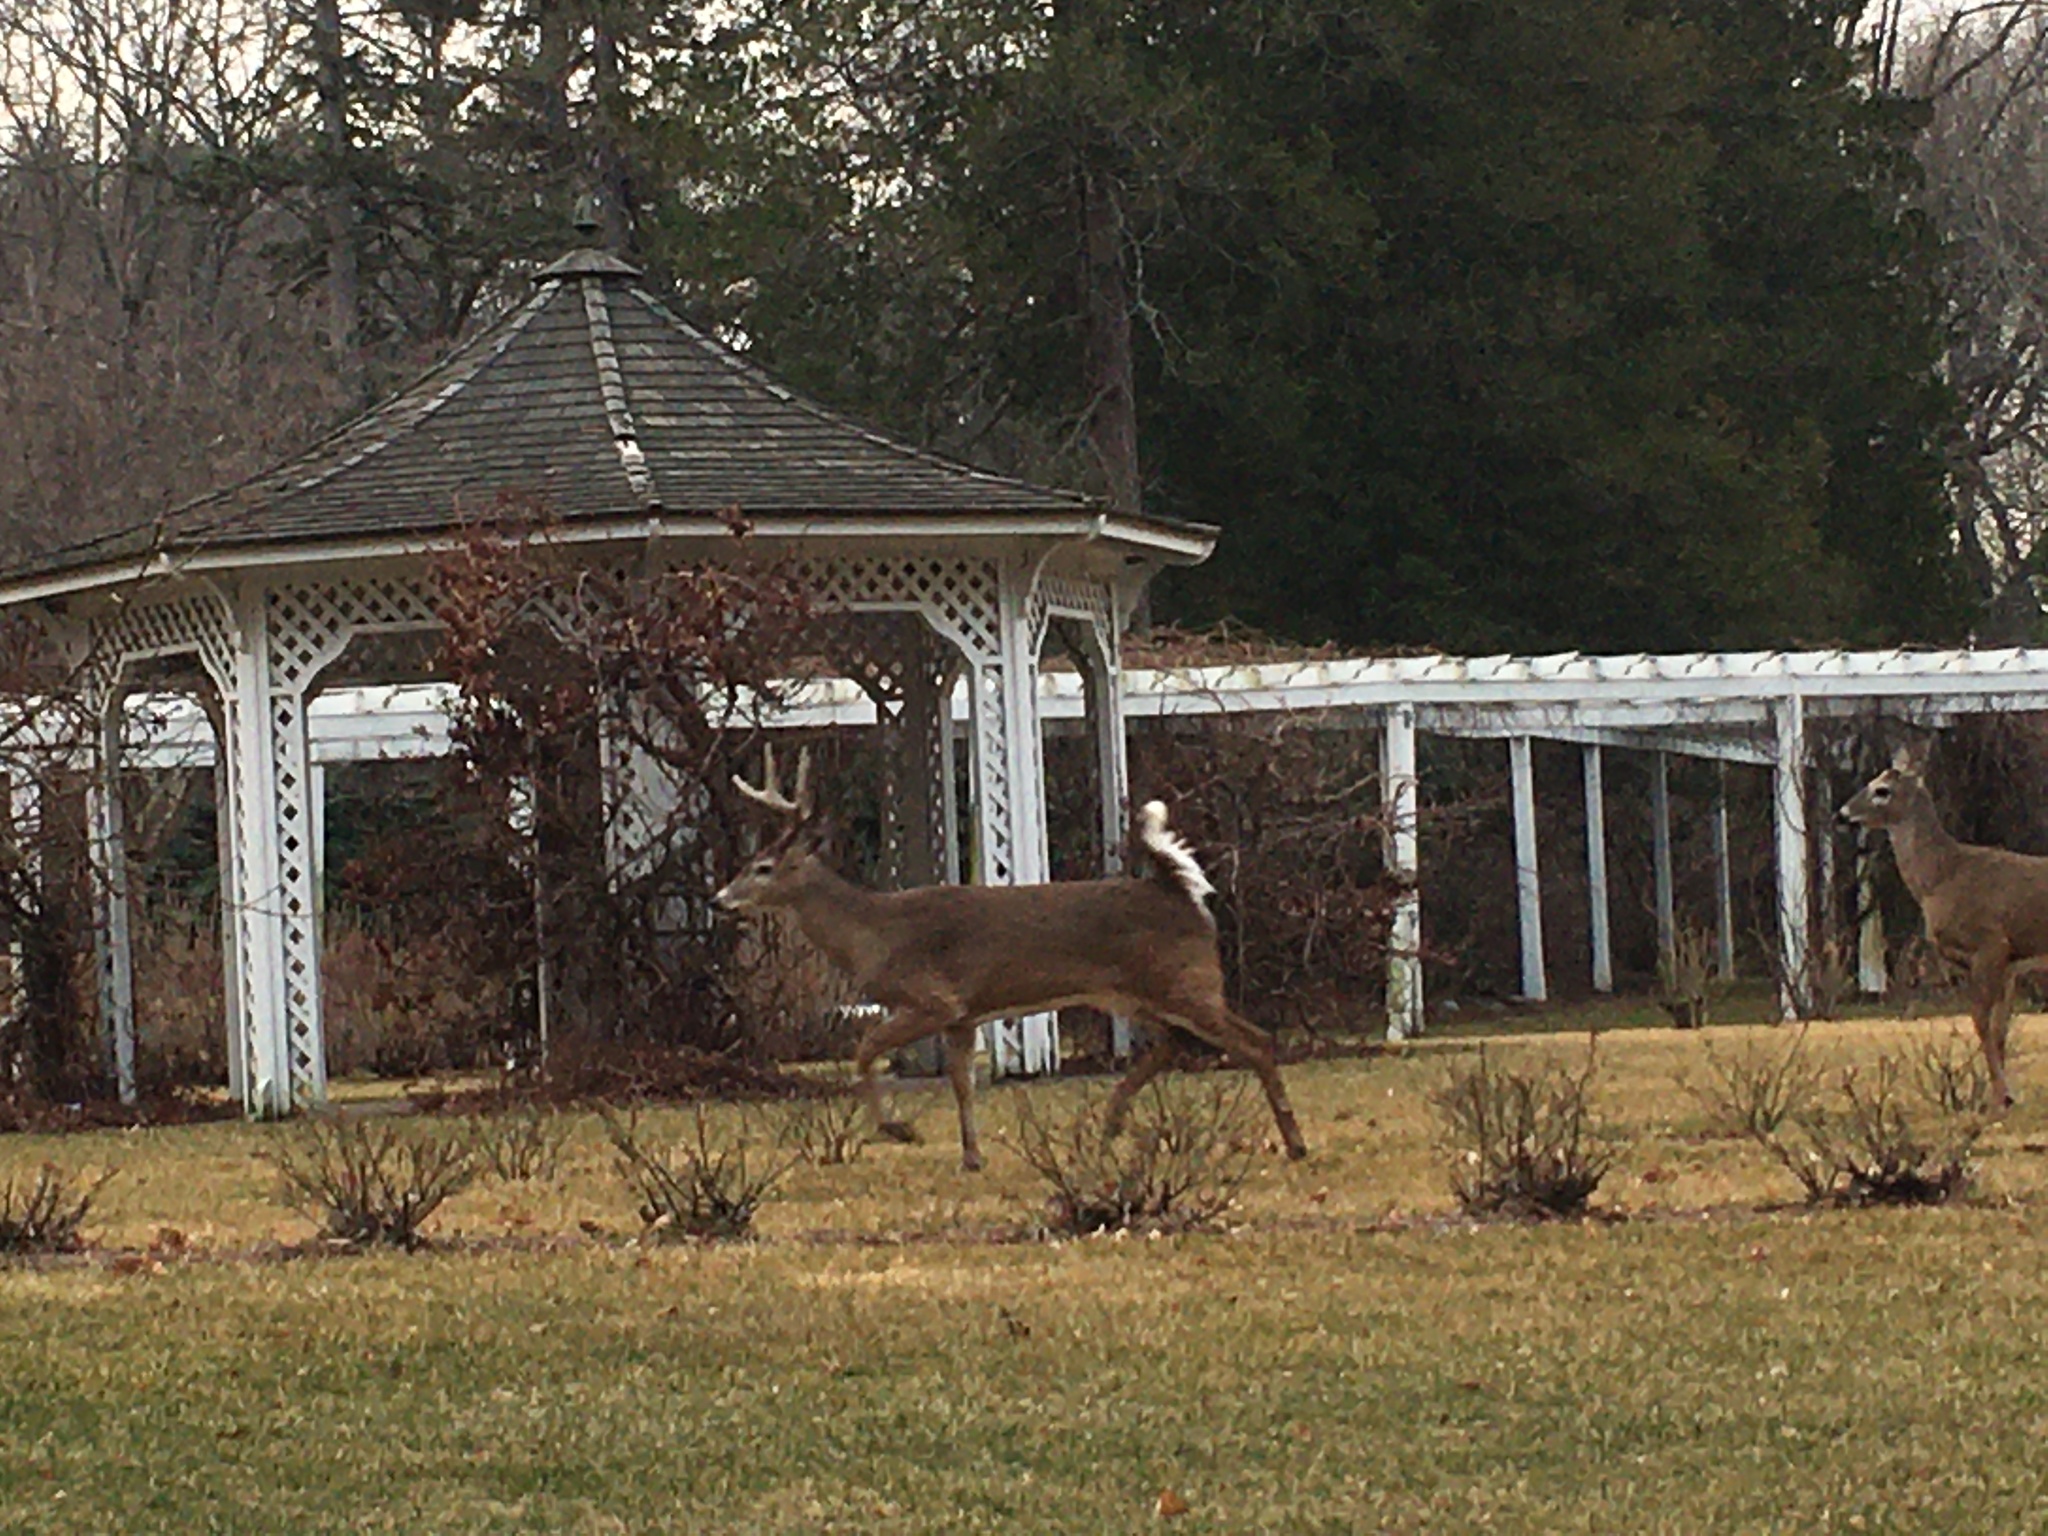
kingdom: Animalia
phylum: Chordata
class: Mammalia
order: Artiodactyla
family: Cervidae
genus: Odocoileus
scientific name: Odocoileus virginianus
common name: White-tailed deer
